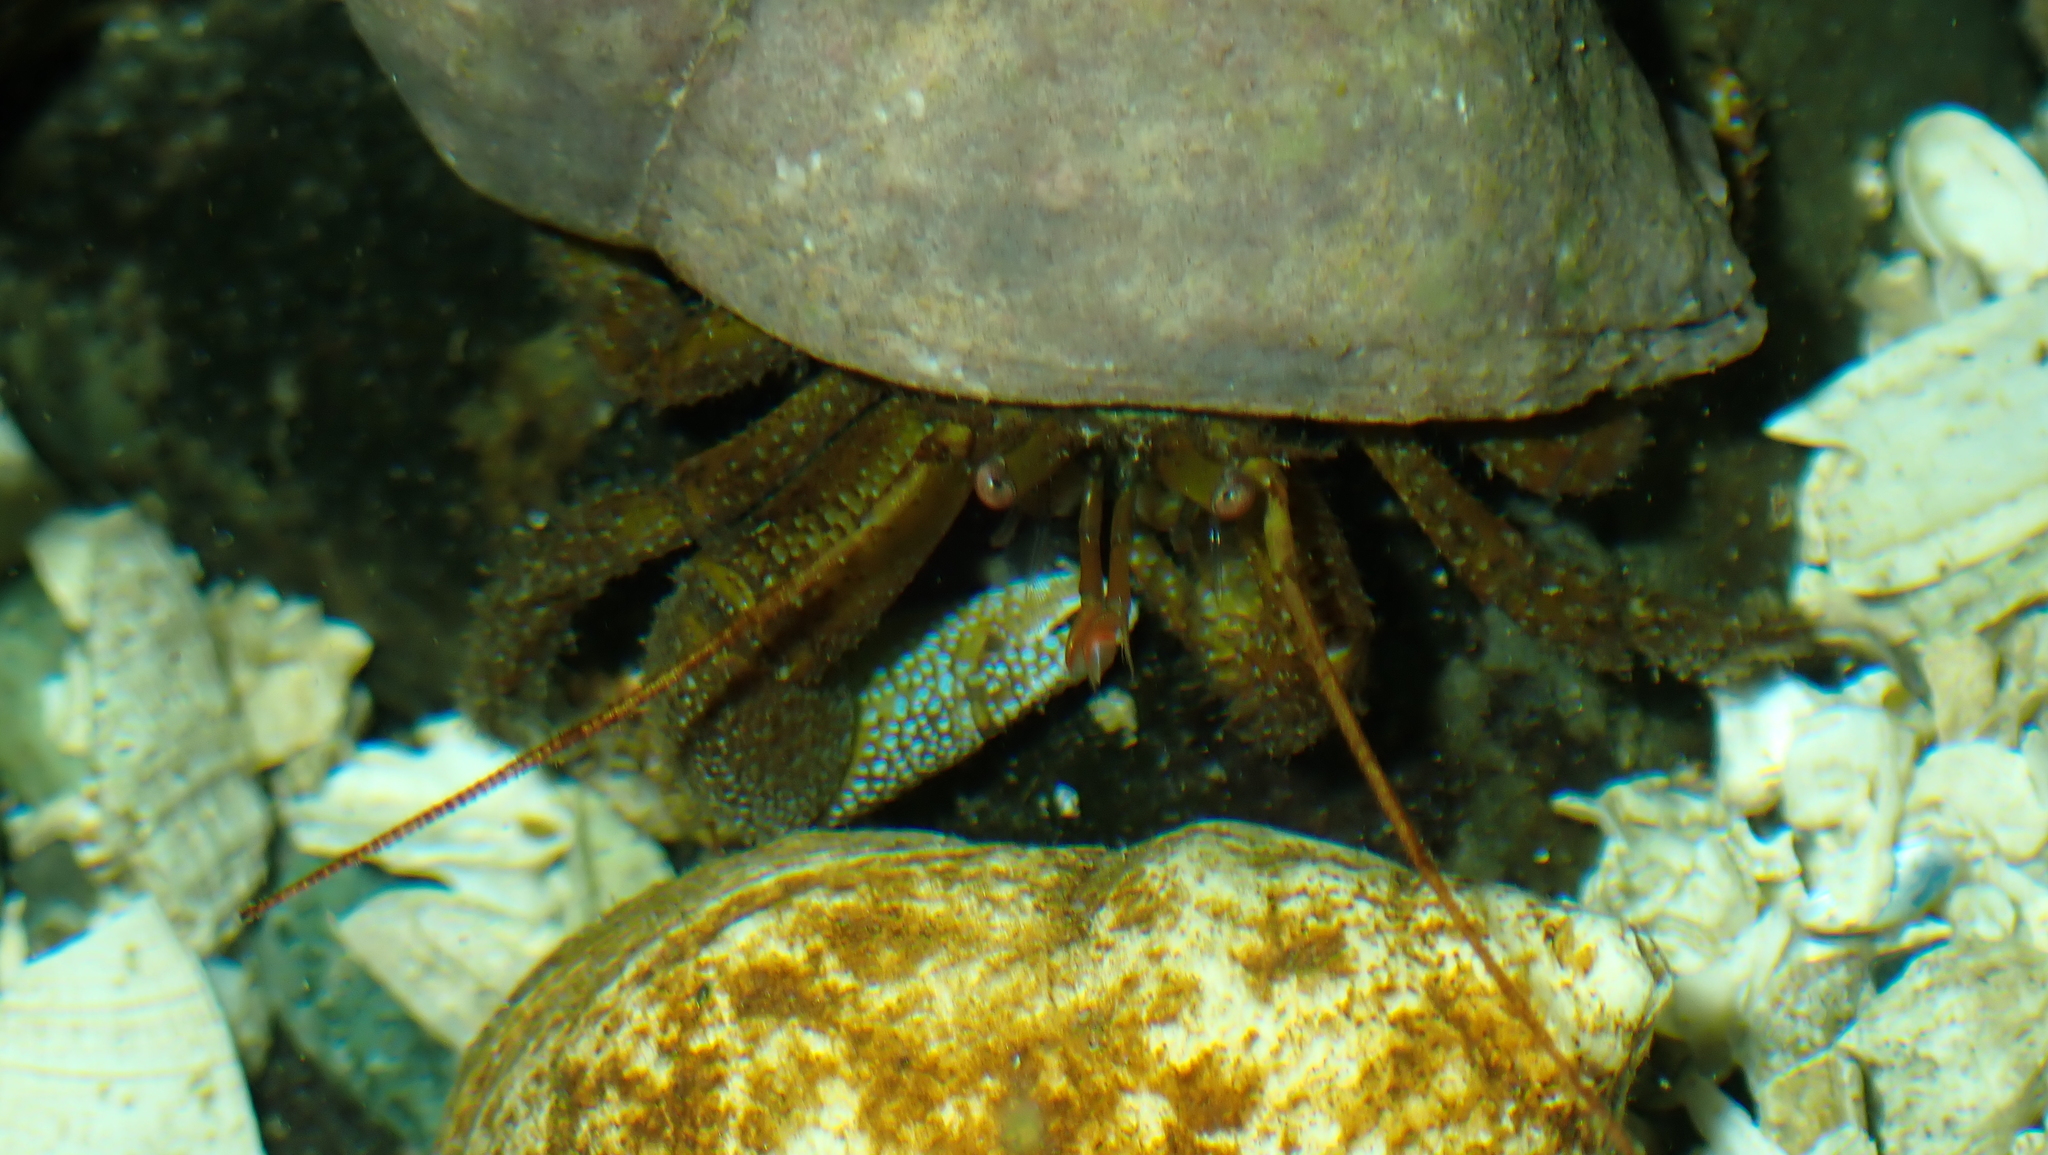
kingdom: Animalia
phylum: Arthropoda
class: Malacostraca
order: Decapoda
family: Paguridae
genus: Pagurus
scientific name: Pagurus granosimanus
